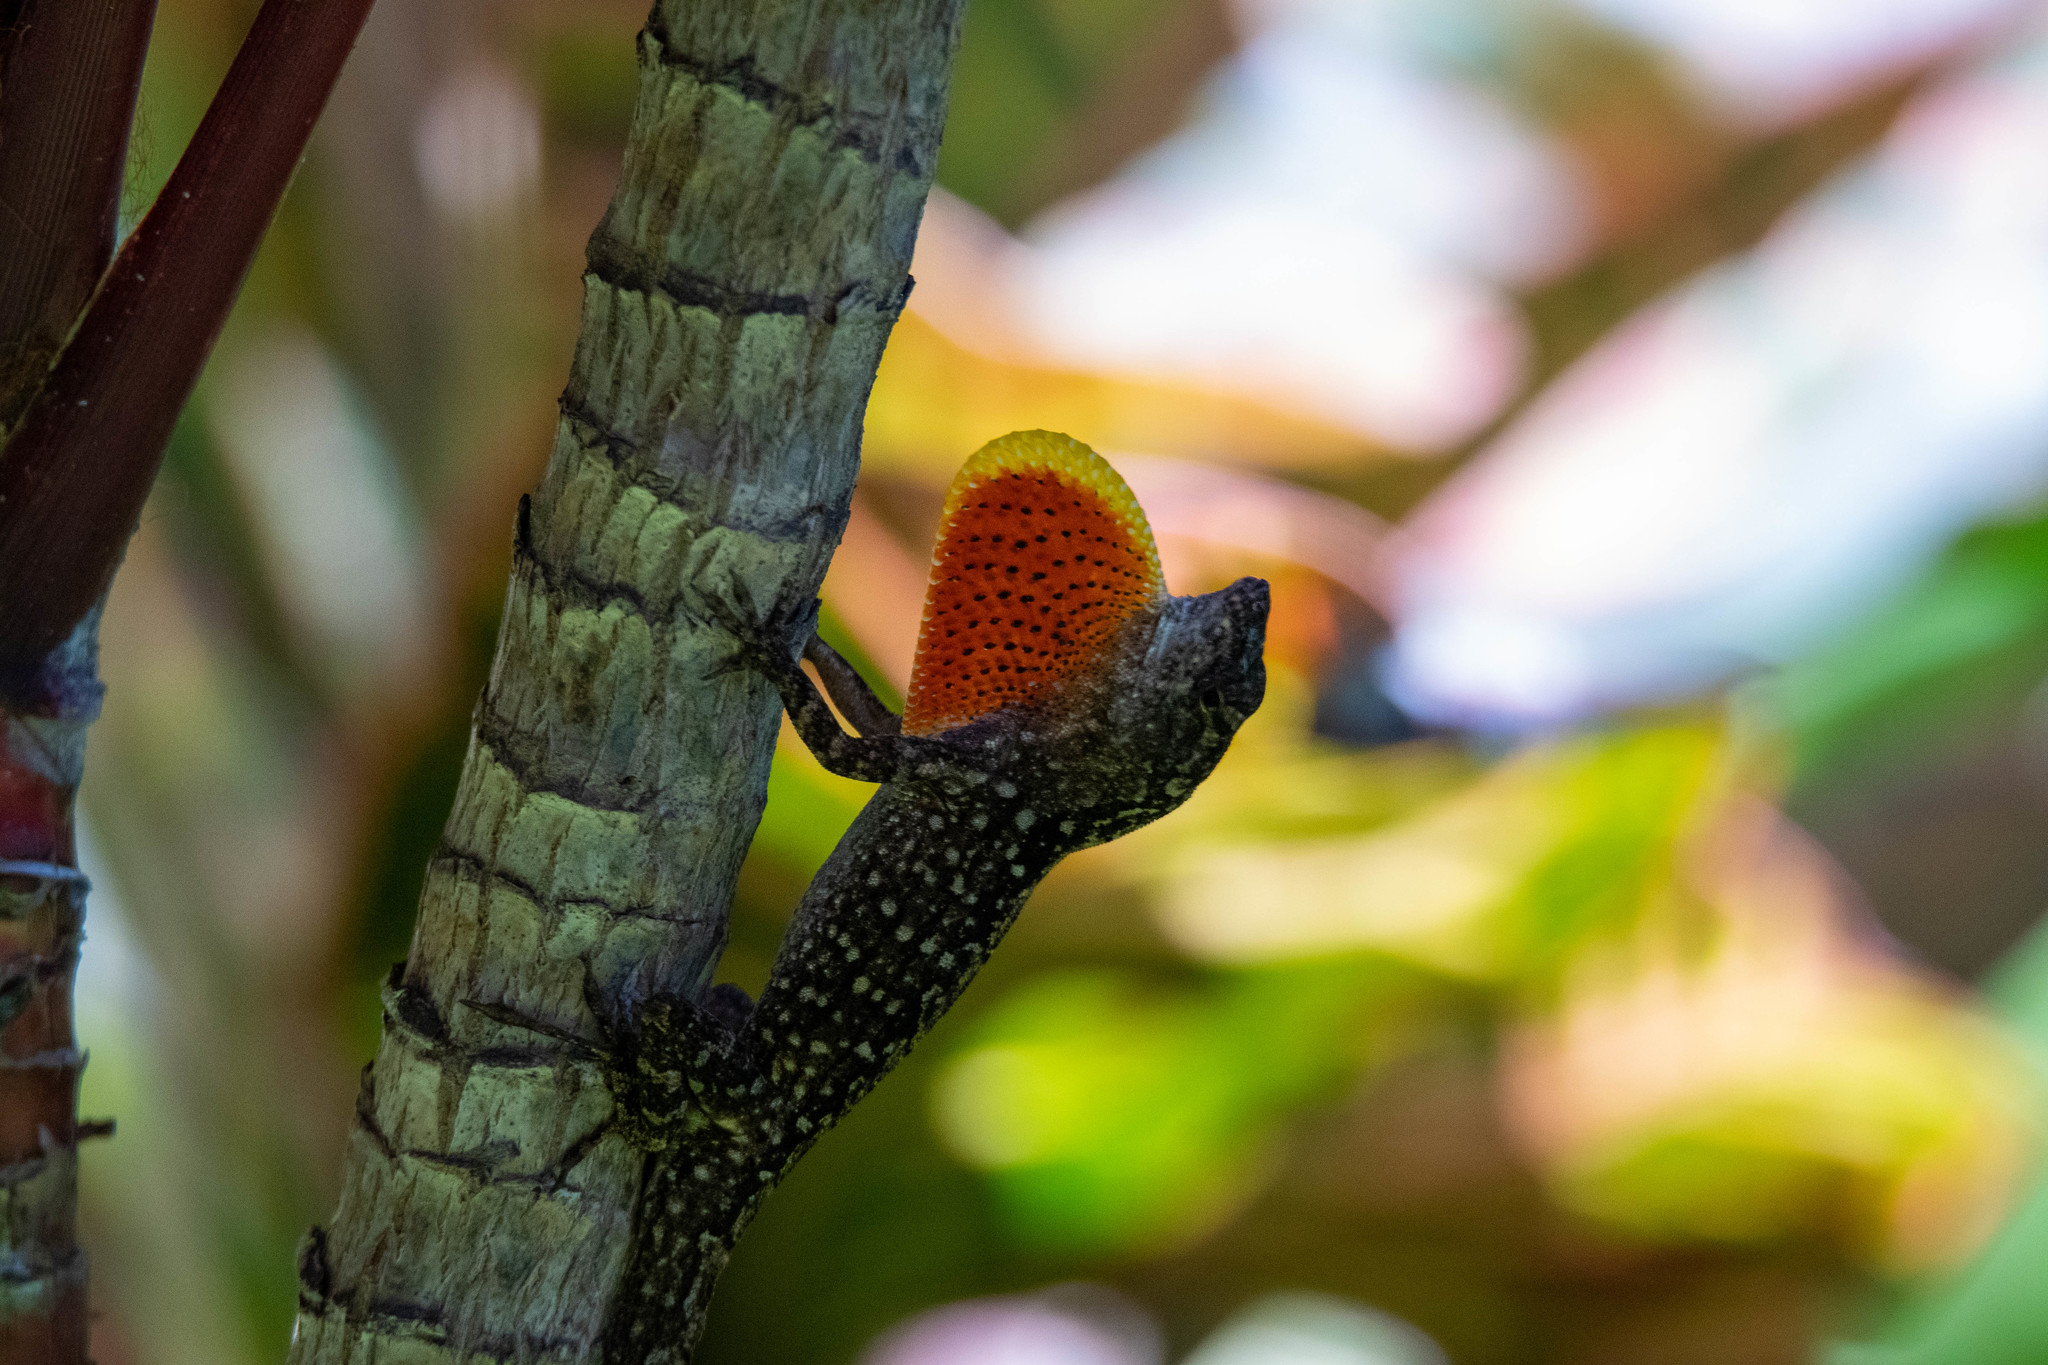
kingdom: Animalia
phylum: Chordata
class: Squamata
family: Dactyloidae
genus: Anolis
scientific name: Anolis sagrei
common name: Brown anole
